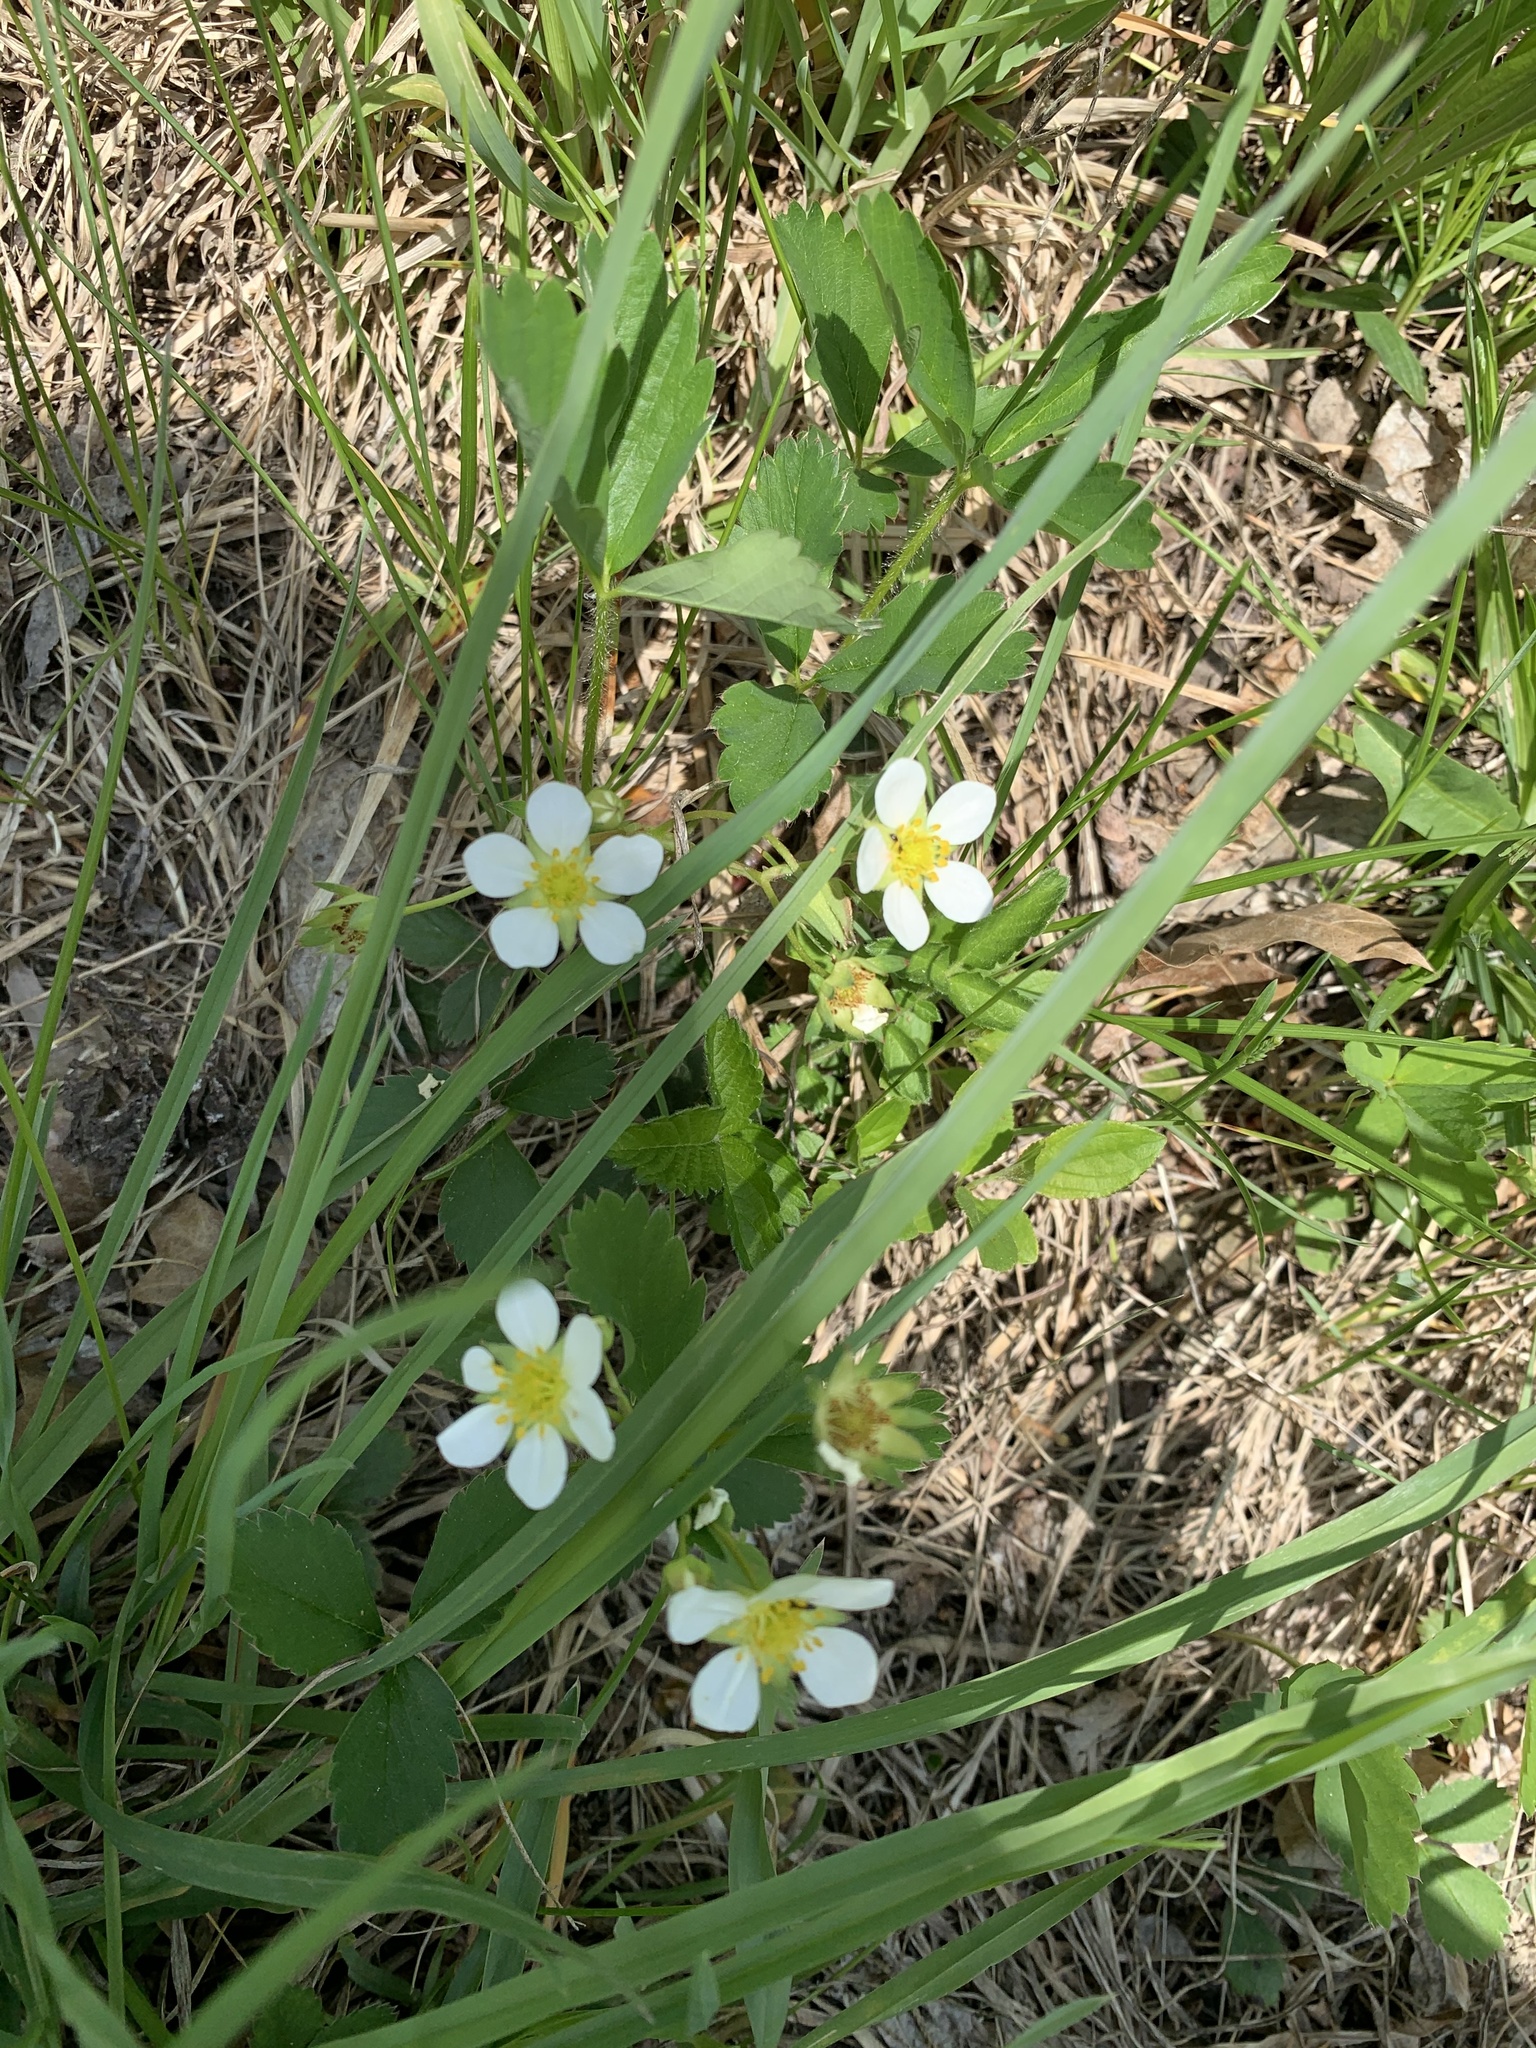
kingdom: Plantae
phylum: Tracheophyta
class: Magnoliopsida
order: Rosales
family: Rosaceae
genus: Fragaria
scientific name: Fragaria virginiana
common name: Thickleaved wild strawberry
